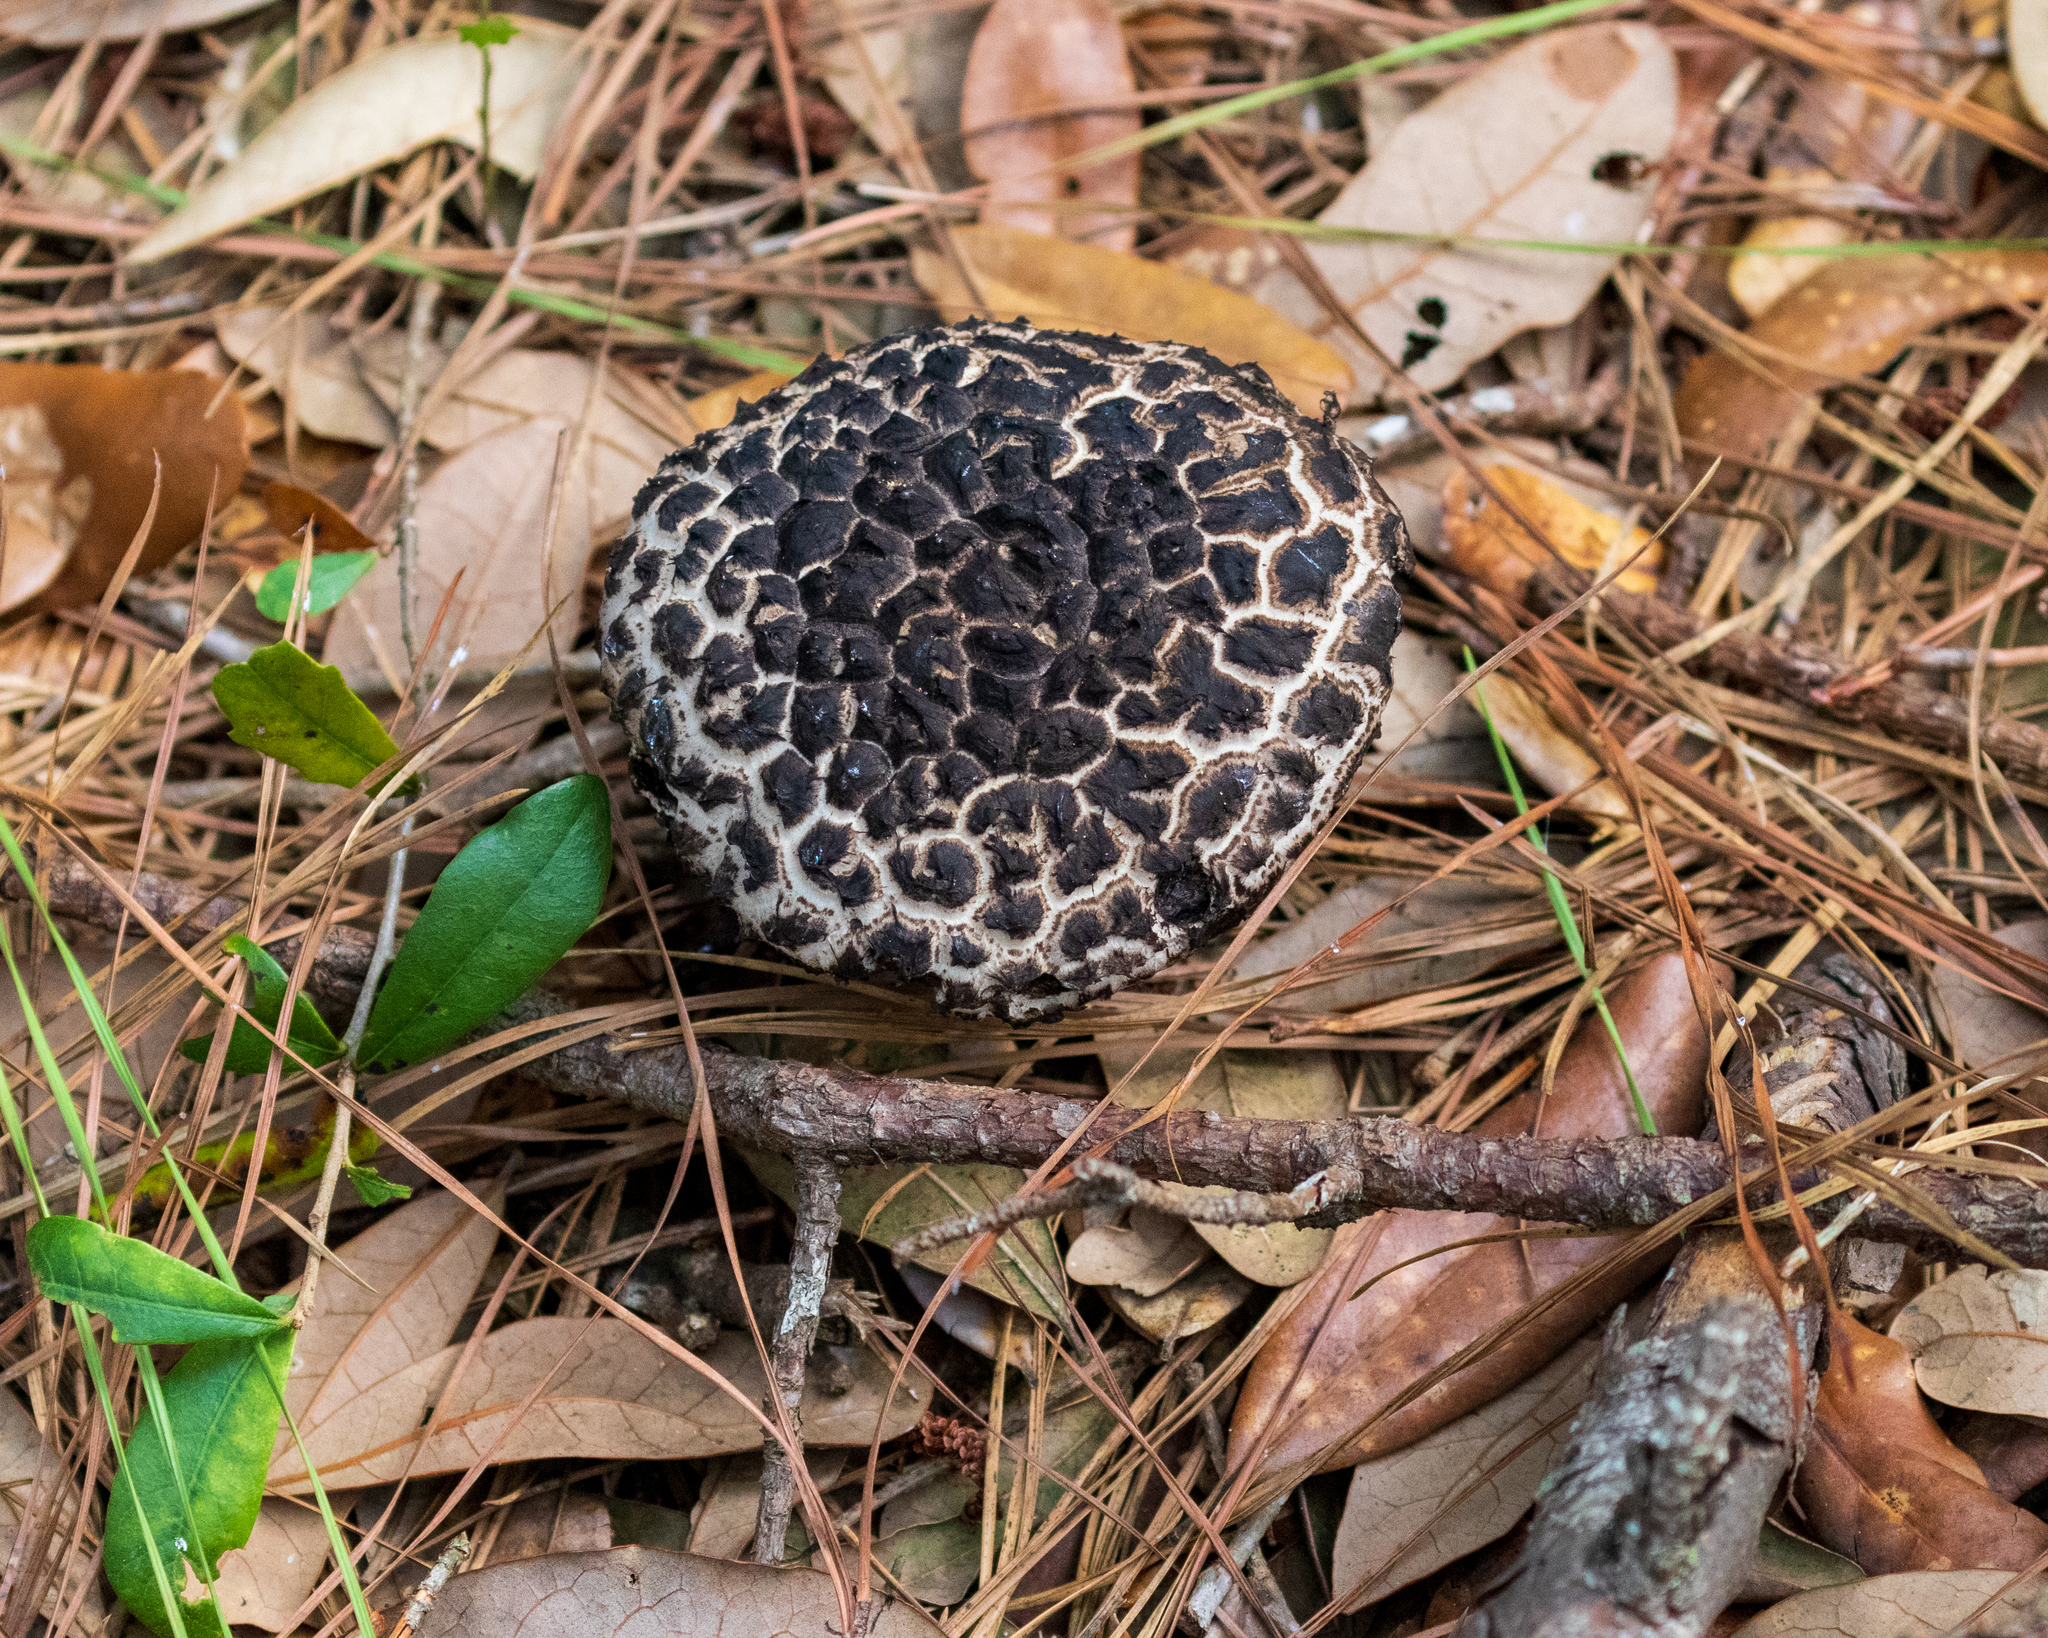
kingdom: Fungi
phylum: Basidiomycota
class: Agaricomycetes
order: Boletales
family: Boletaceae
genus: Strobilomyces
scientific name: Strobilomyces strobilaceus
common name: Old man of the woods
